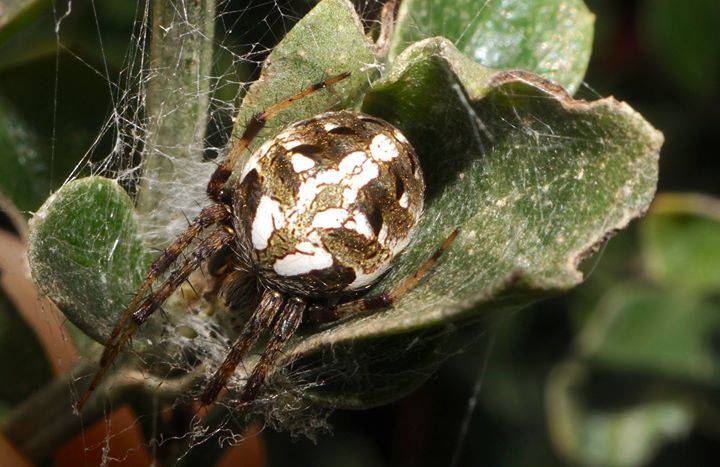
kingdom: Animalia
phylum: Arthropoda
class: Arachnida
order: Araneae
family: Araneidae
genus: Neoscona
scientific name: Neoscona arabesca
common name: Orb weavers
